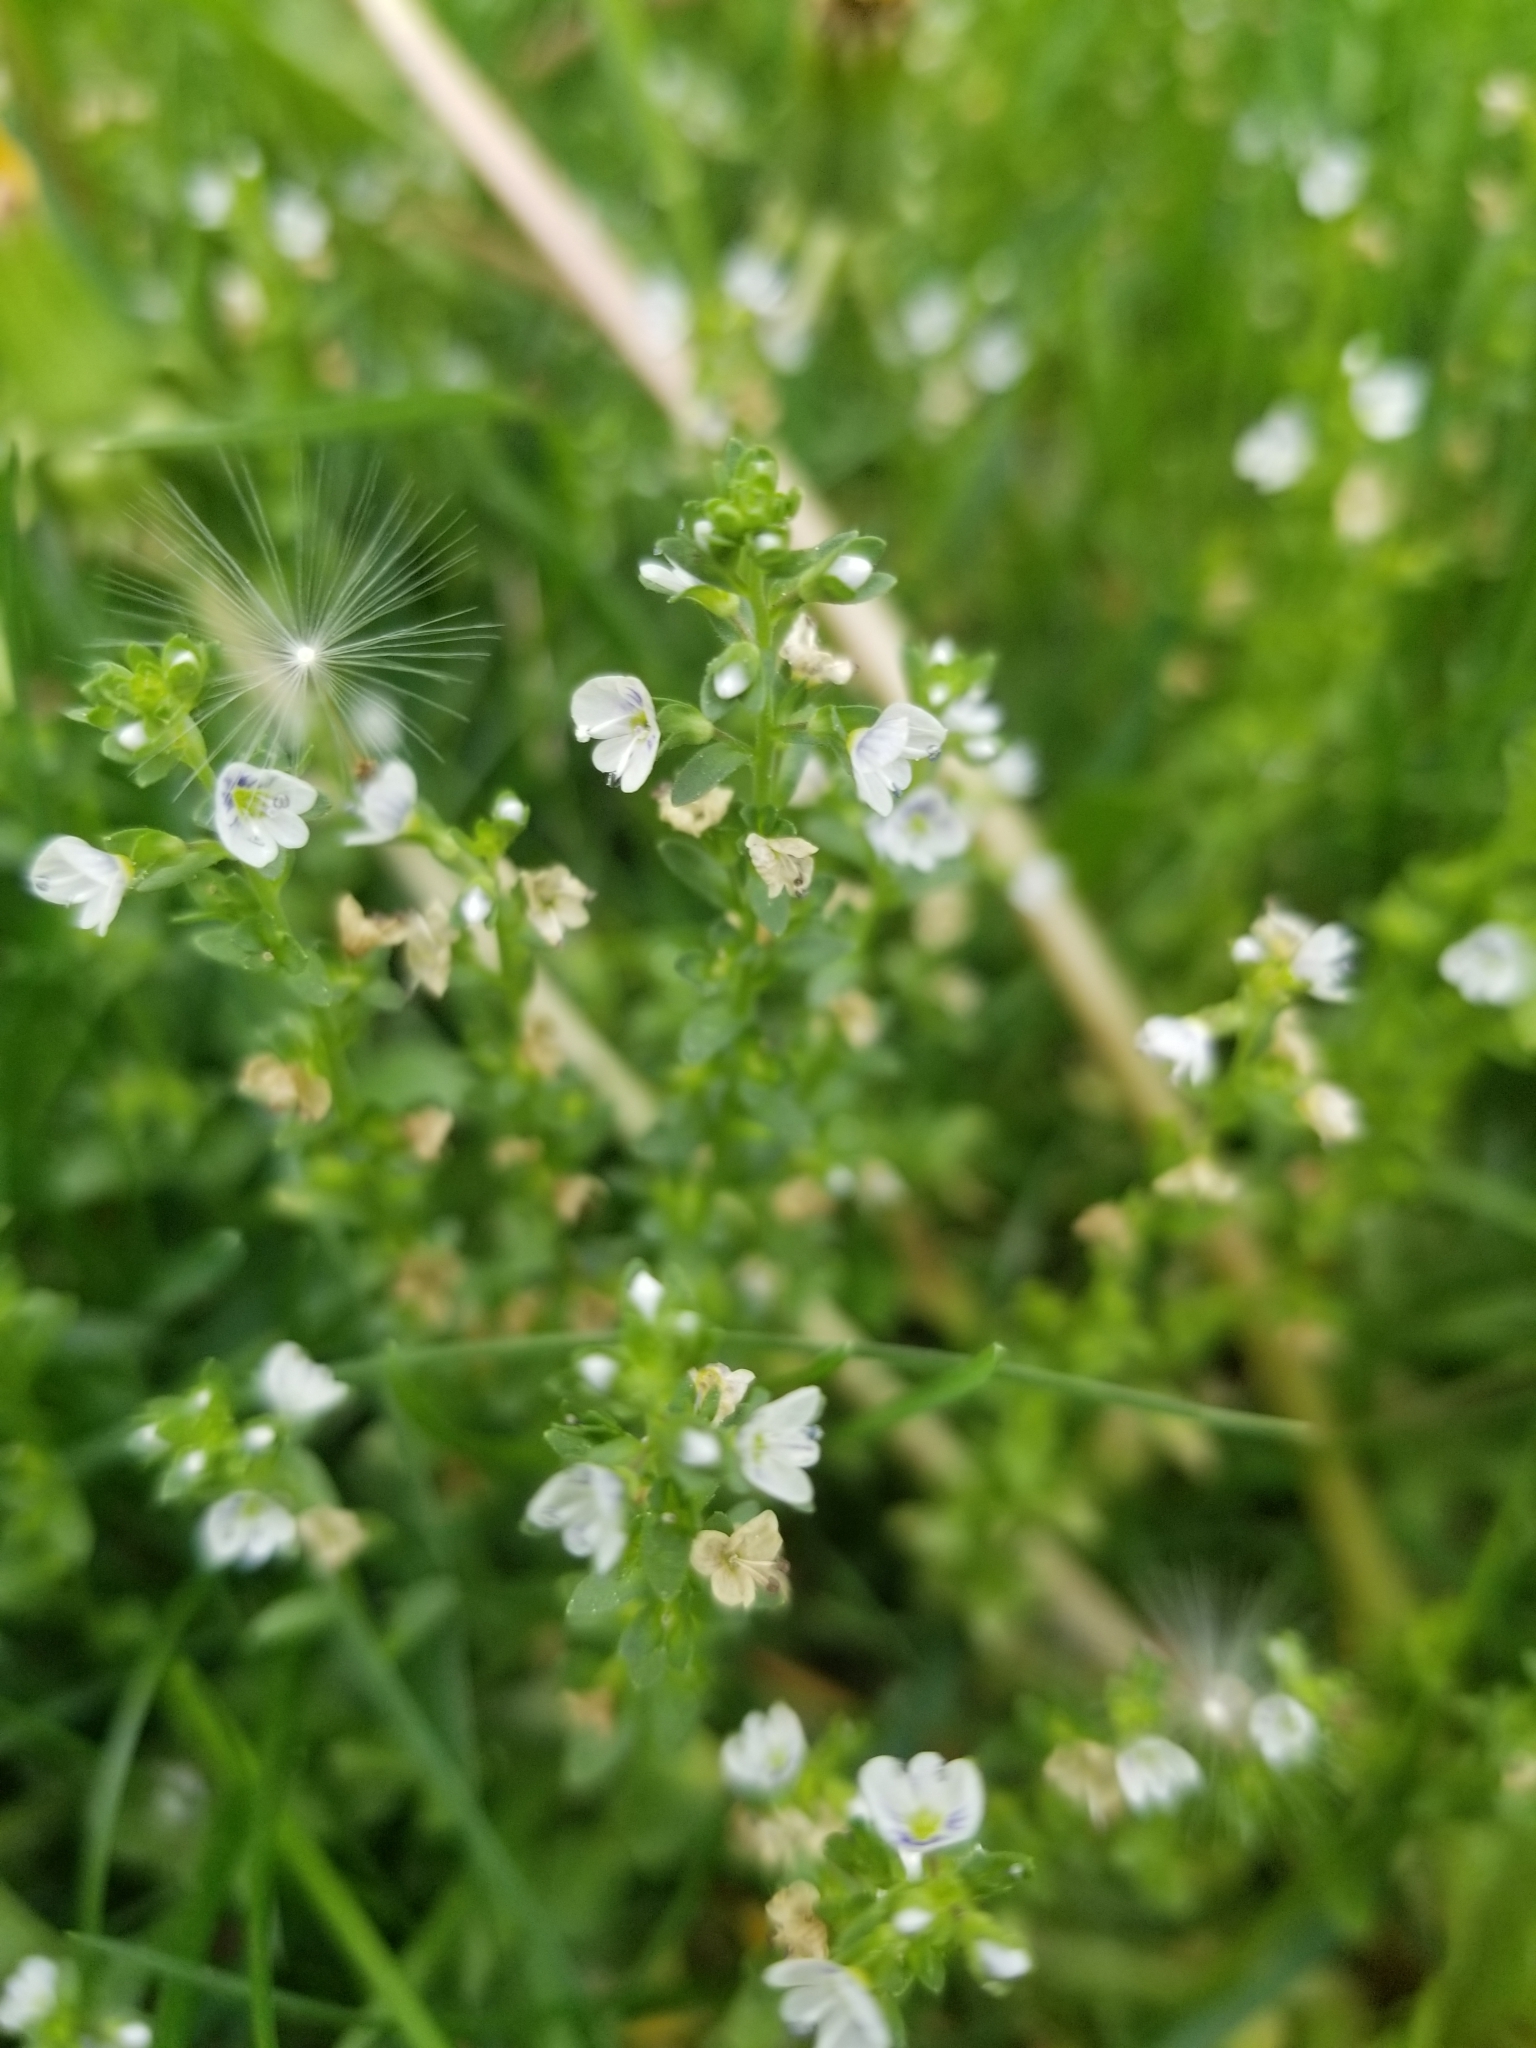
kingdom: Plantae
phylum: Tracheophyta
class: Magnoliopsida
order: Lamiales
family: Plantaginaceae
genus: Veronica
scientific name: Veronica serpyllifolia
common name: Thyme-leaved speedwell
